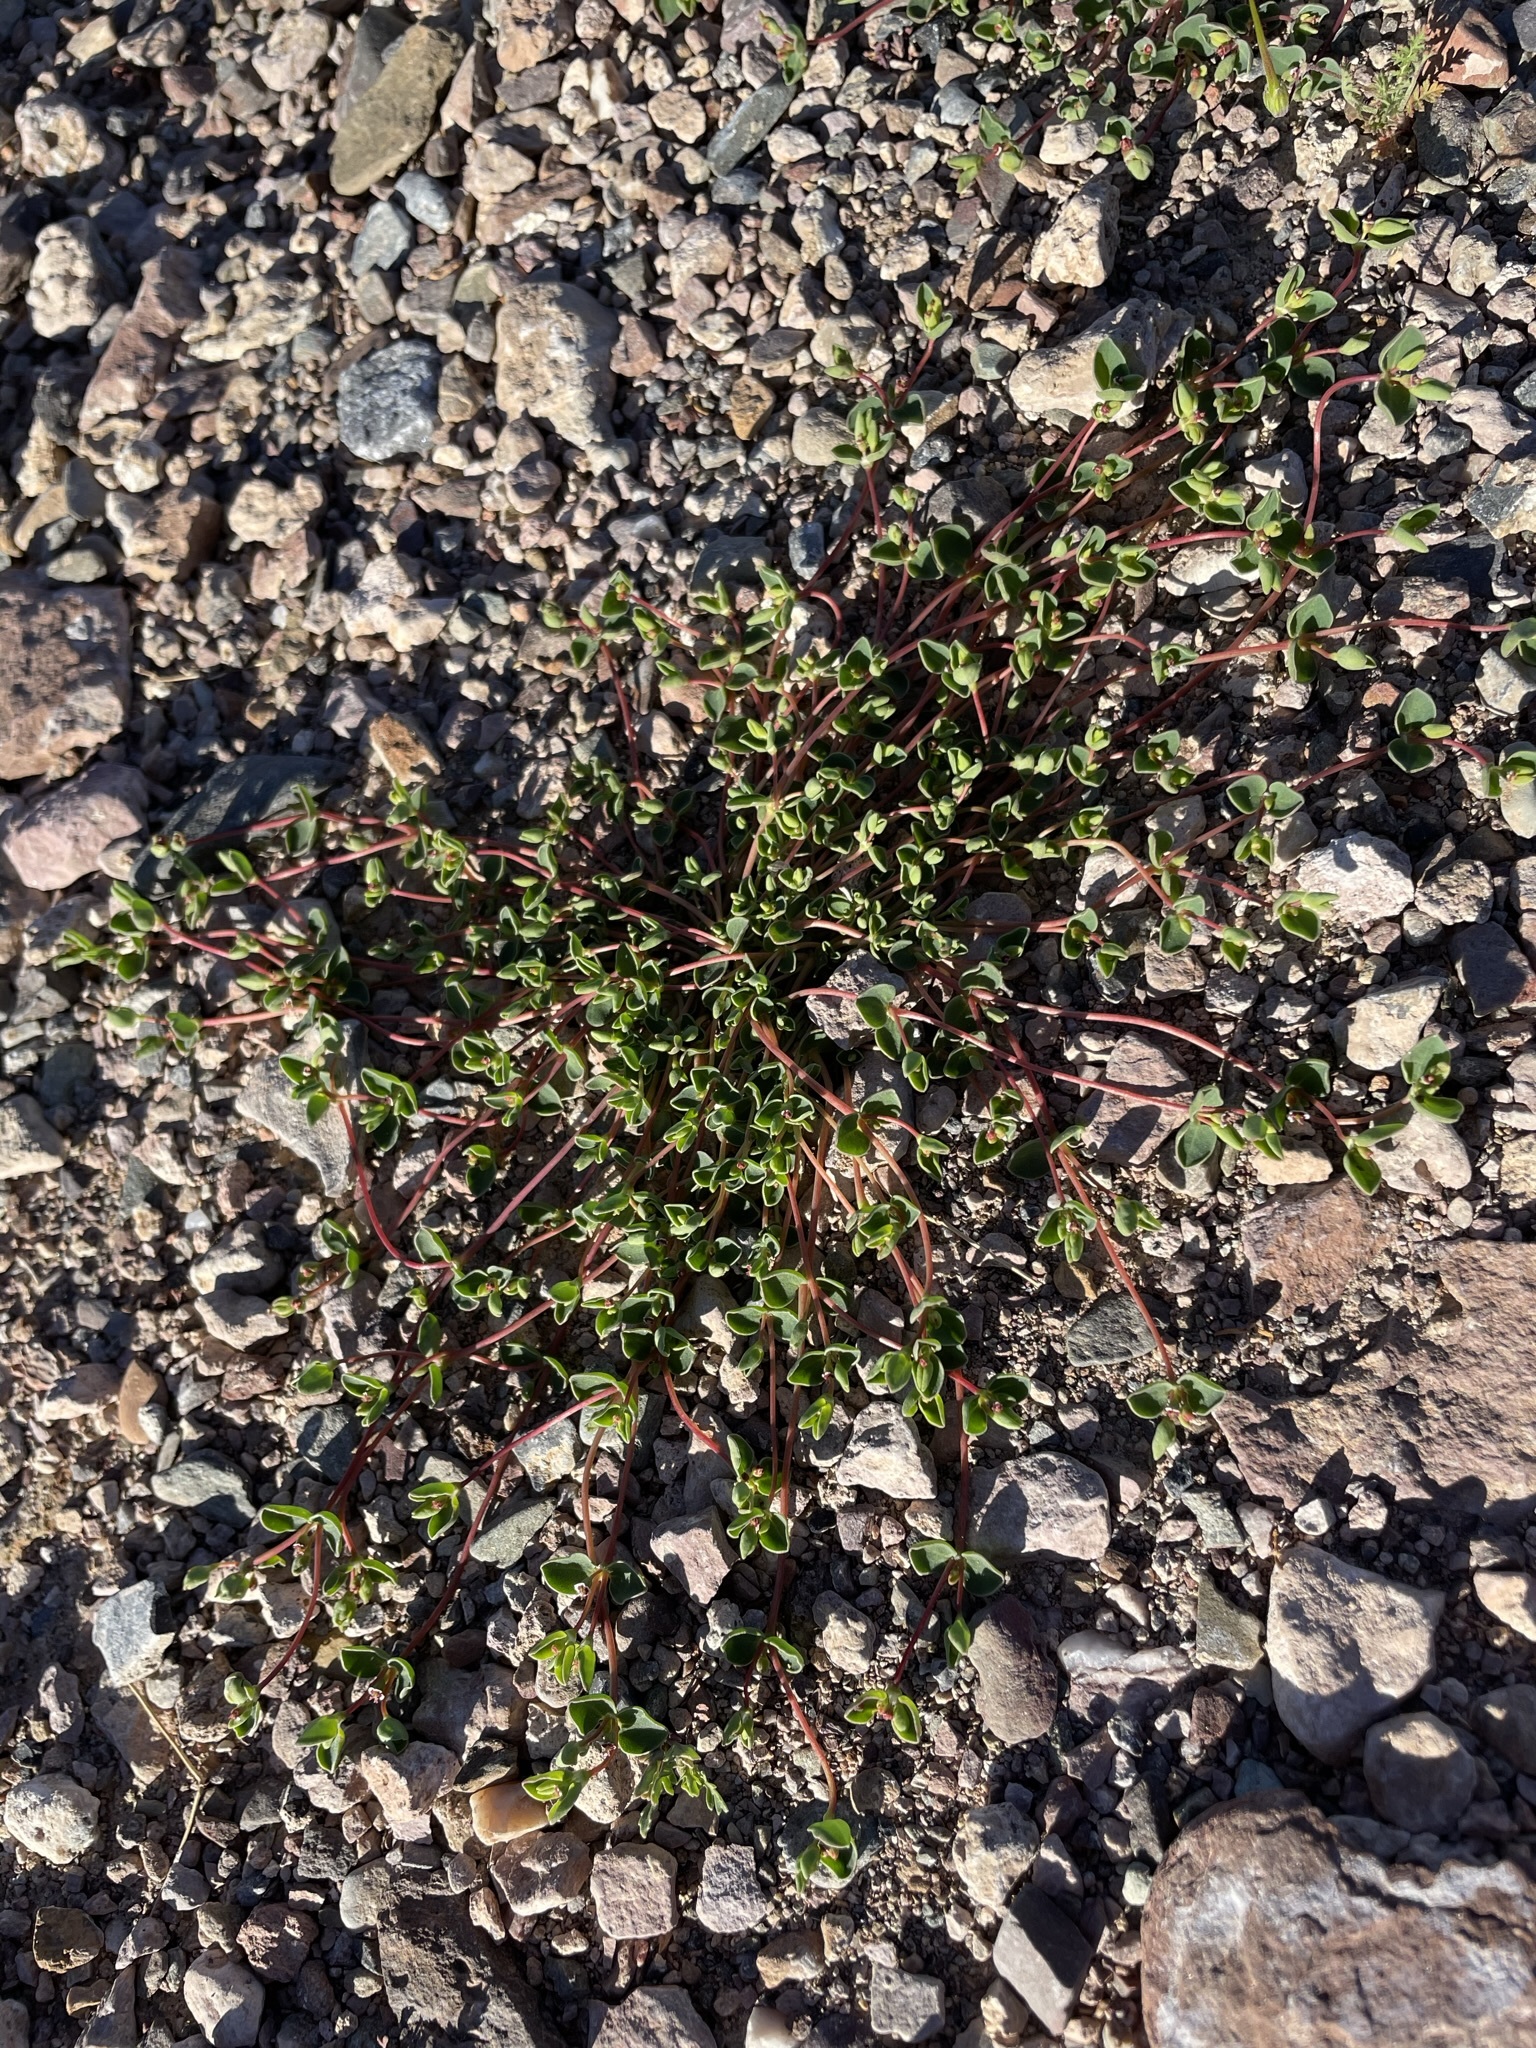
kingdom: Plantae
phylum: Tracheophyta
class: Magnoliopsida
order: Malpighiales
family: Euphorbiaceae
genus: Euphorbia
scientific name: Euphorbia albomarginata
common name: Whitemargin sandmat
